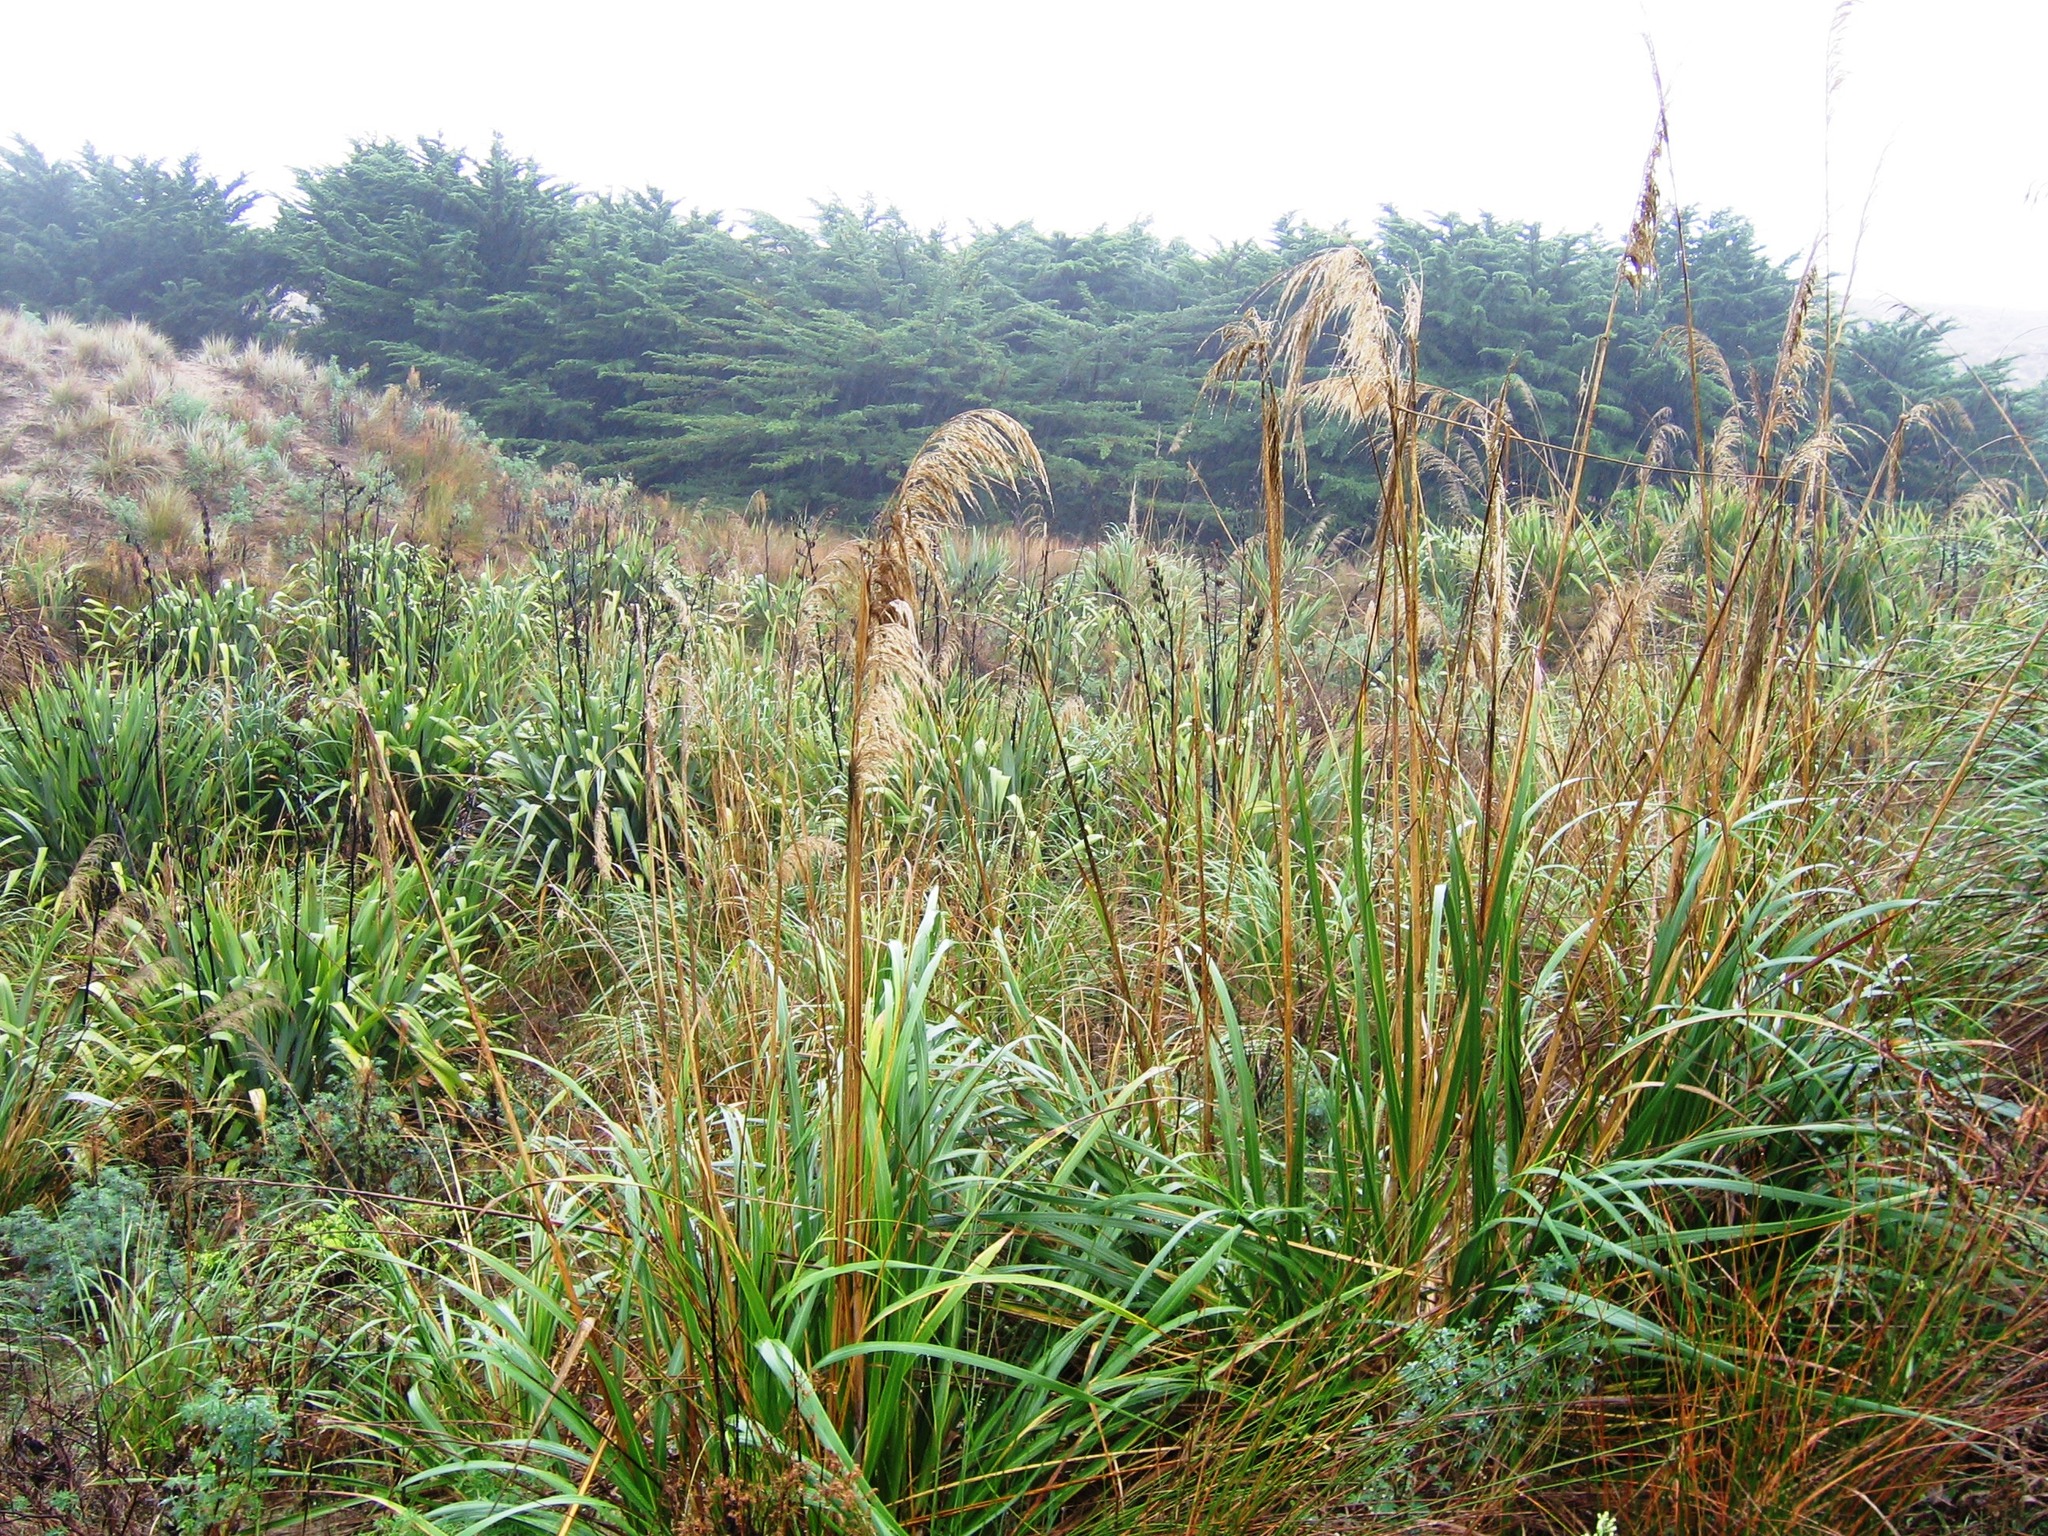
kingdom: Plantae
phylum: Tracheophyta
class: Liliopsida
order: Poales
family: Poaceae
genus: Austroderia
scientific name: Austroderia splendens
